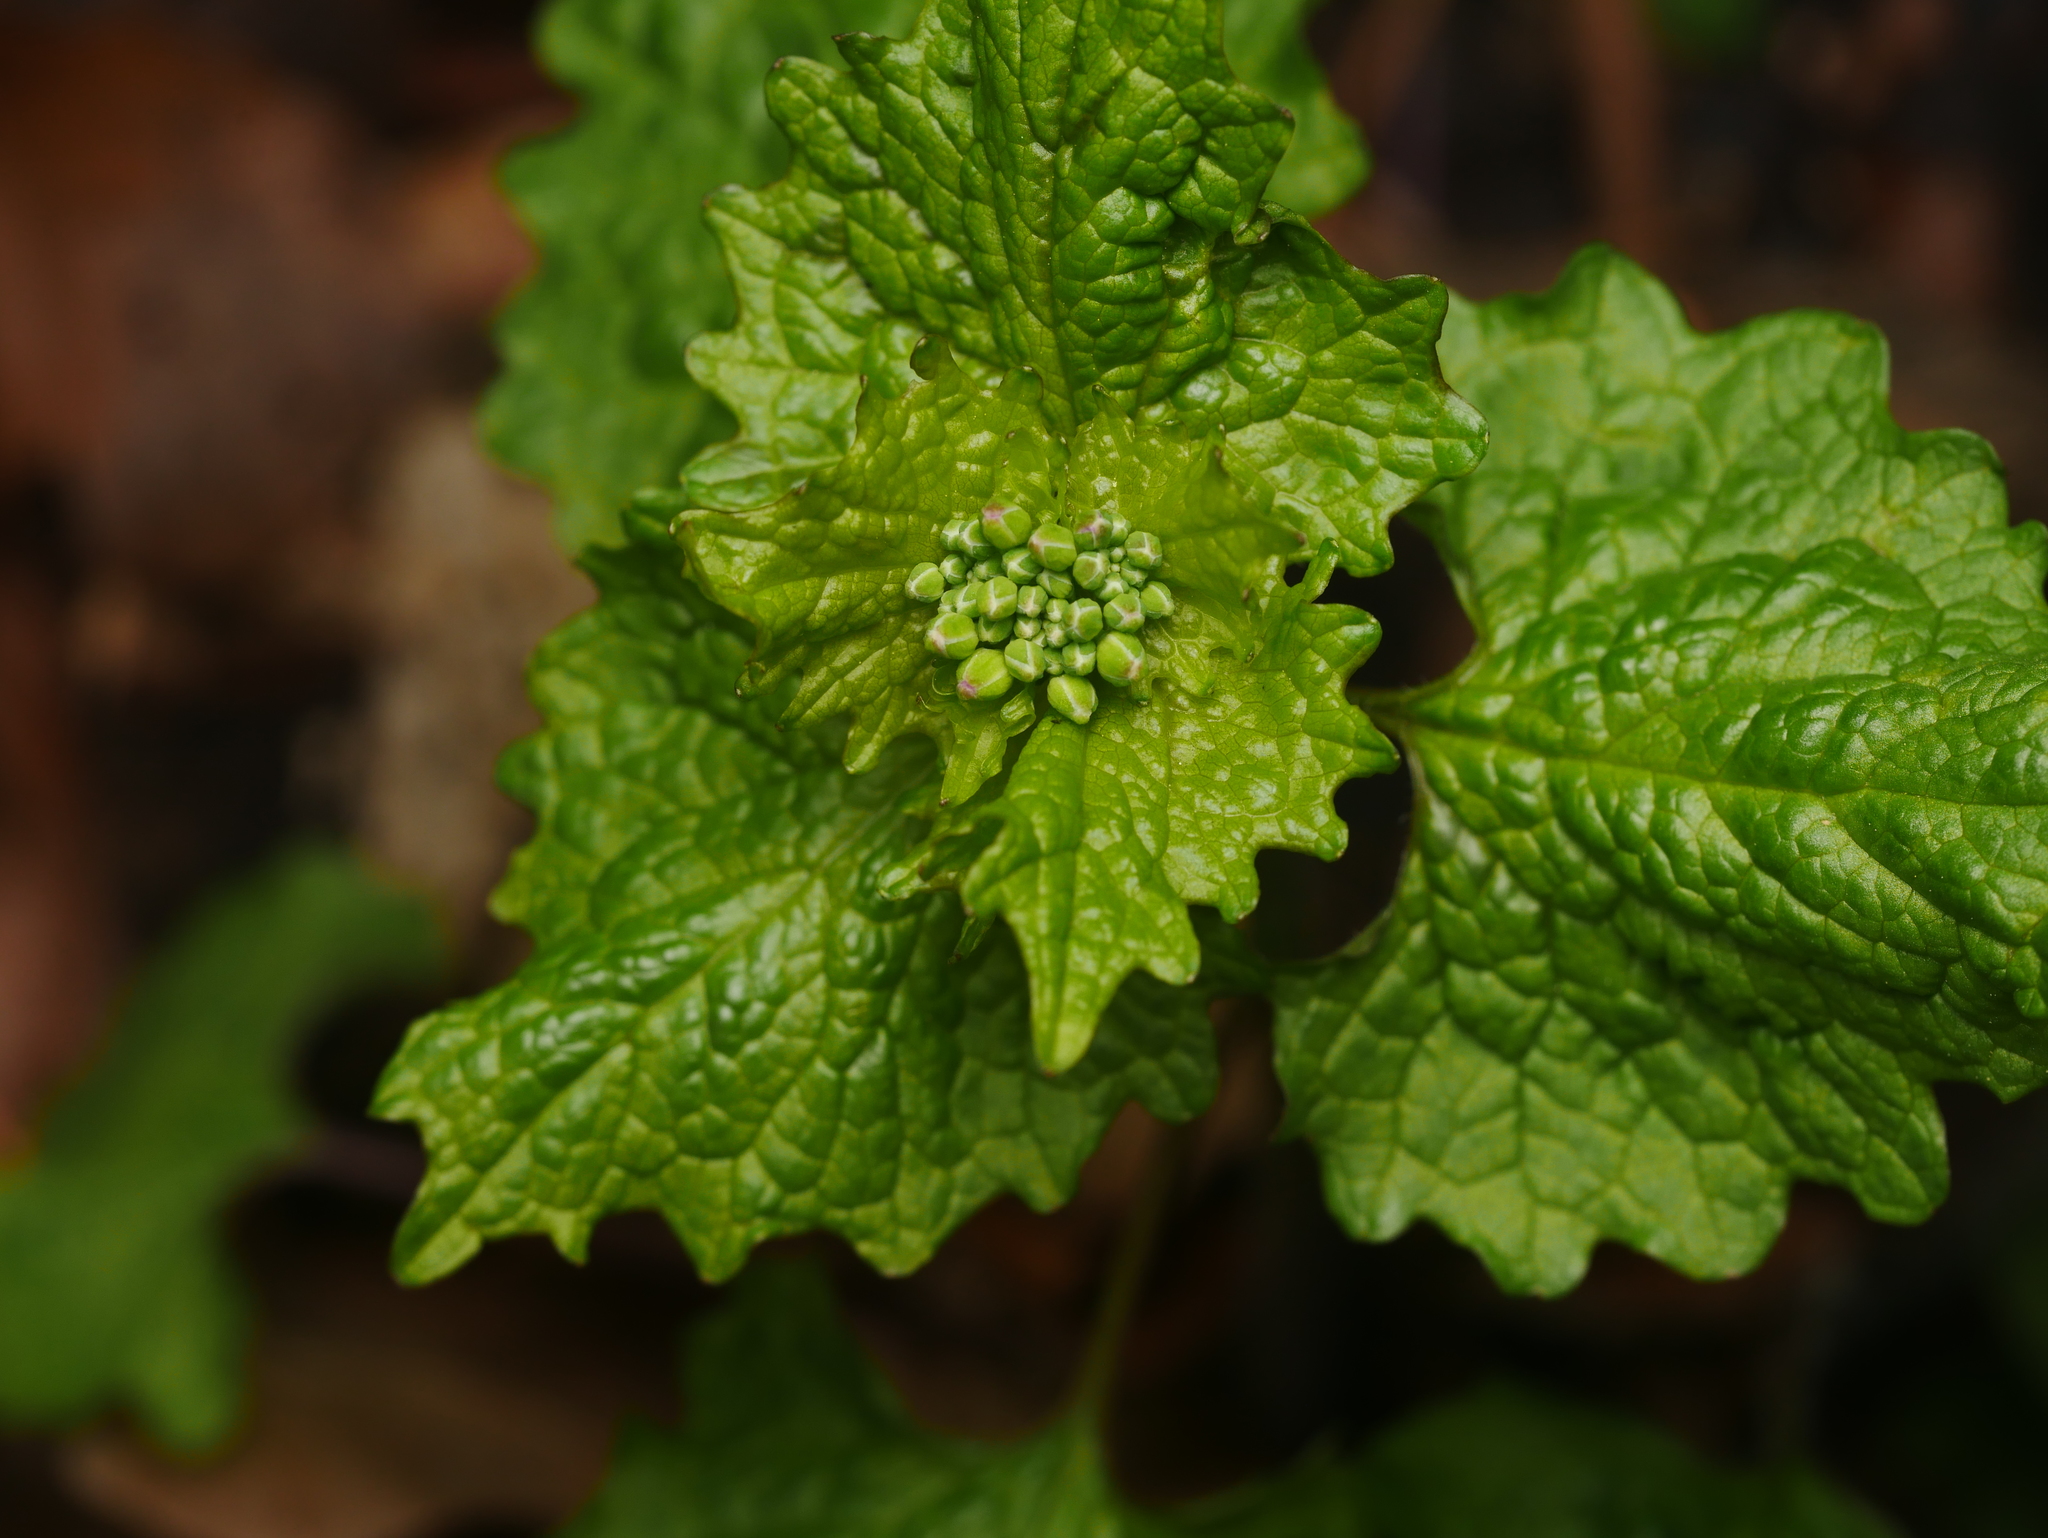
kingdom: Plantae
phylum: Tracheophyta
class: Magnoliopsida
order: Brassicales
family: Brassicaceae
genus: Alliaria
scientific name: Alliaria petiolata
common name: Garlic mustard
